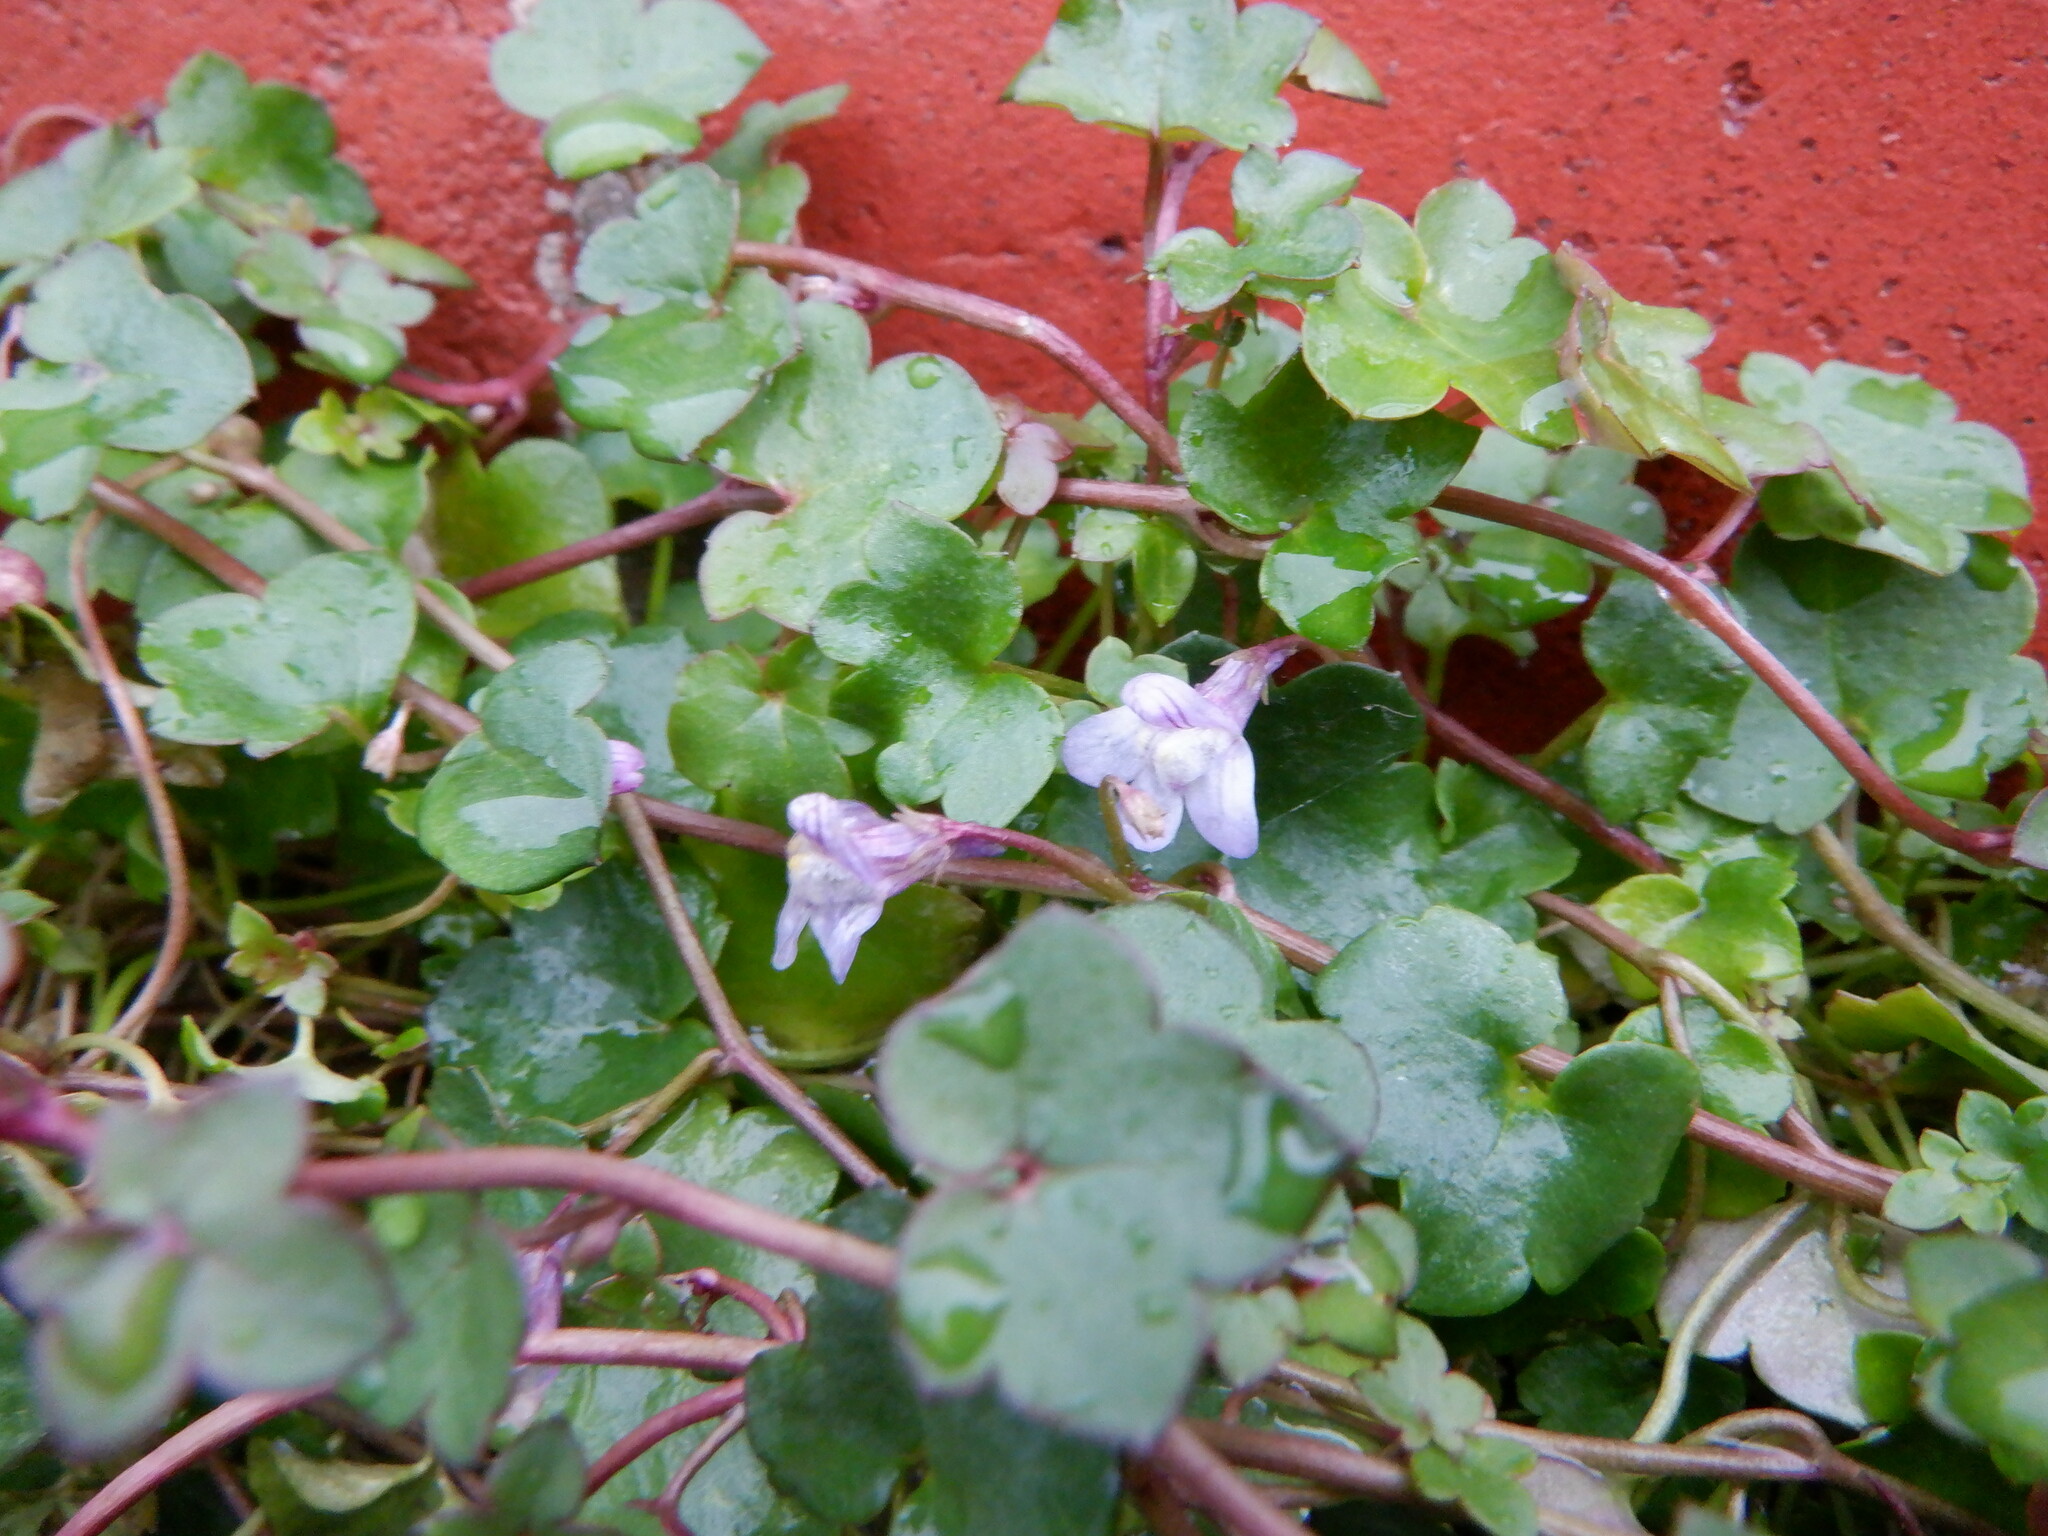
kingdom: Plantae
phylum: Tracheophyta
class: Magnoliopsida
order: Lamiales
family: Plantaginaceae
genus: Cymbalaria
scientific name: Cymbalaria muralis
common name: Ivy-leaved toadflax
